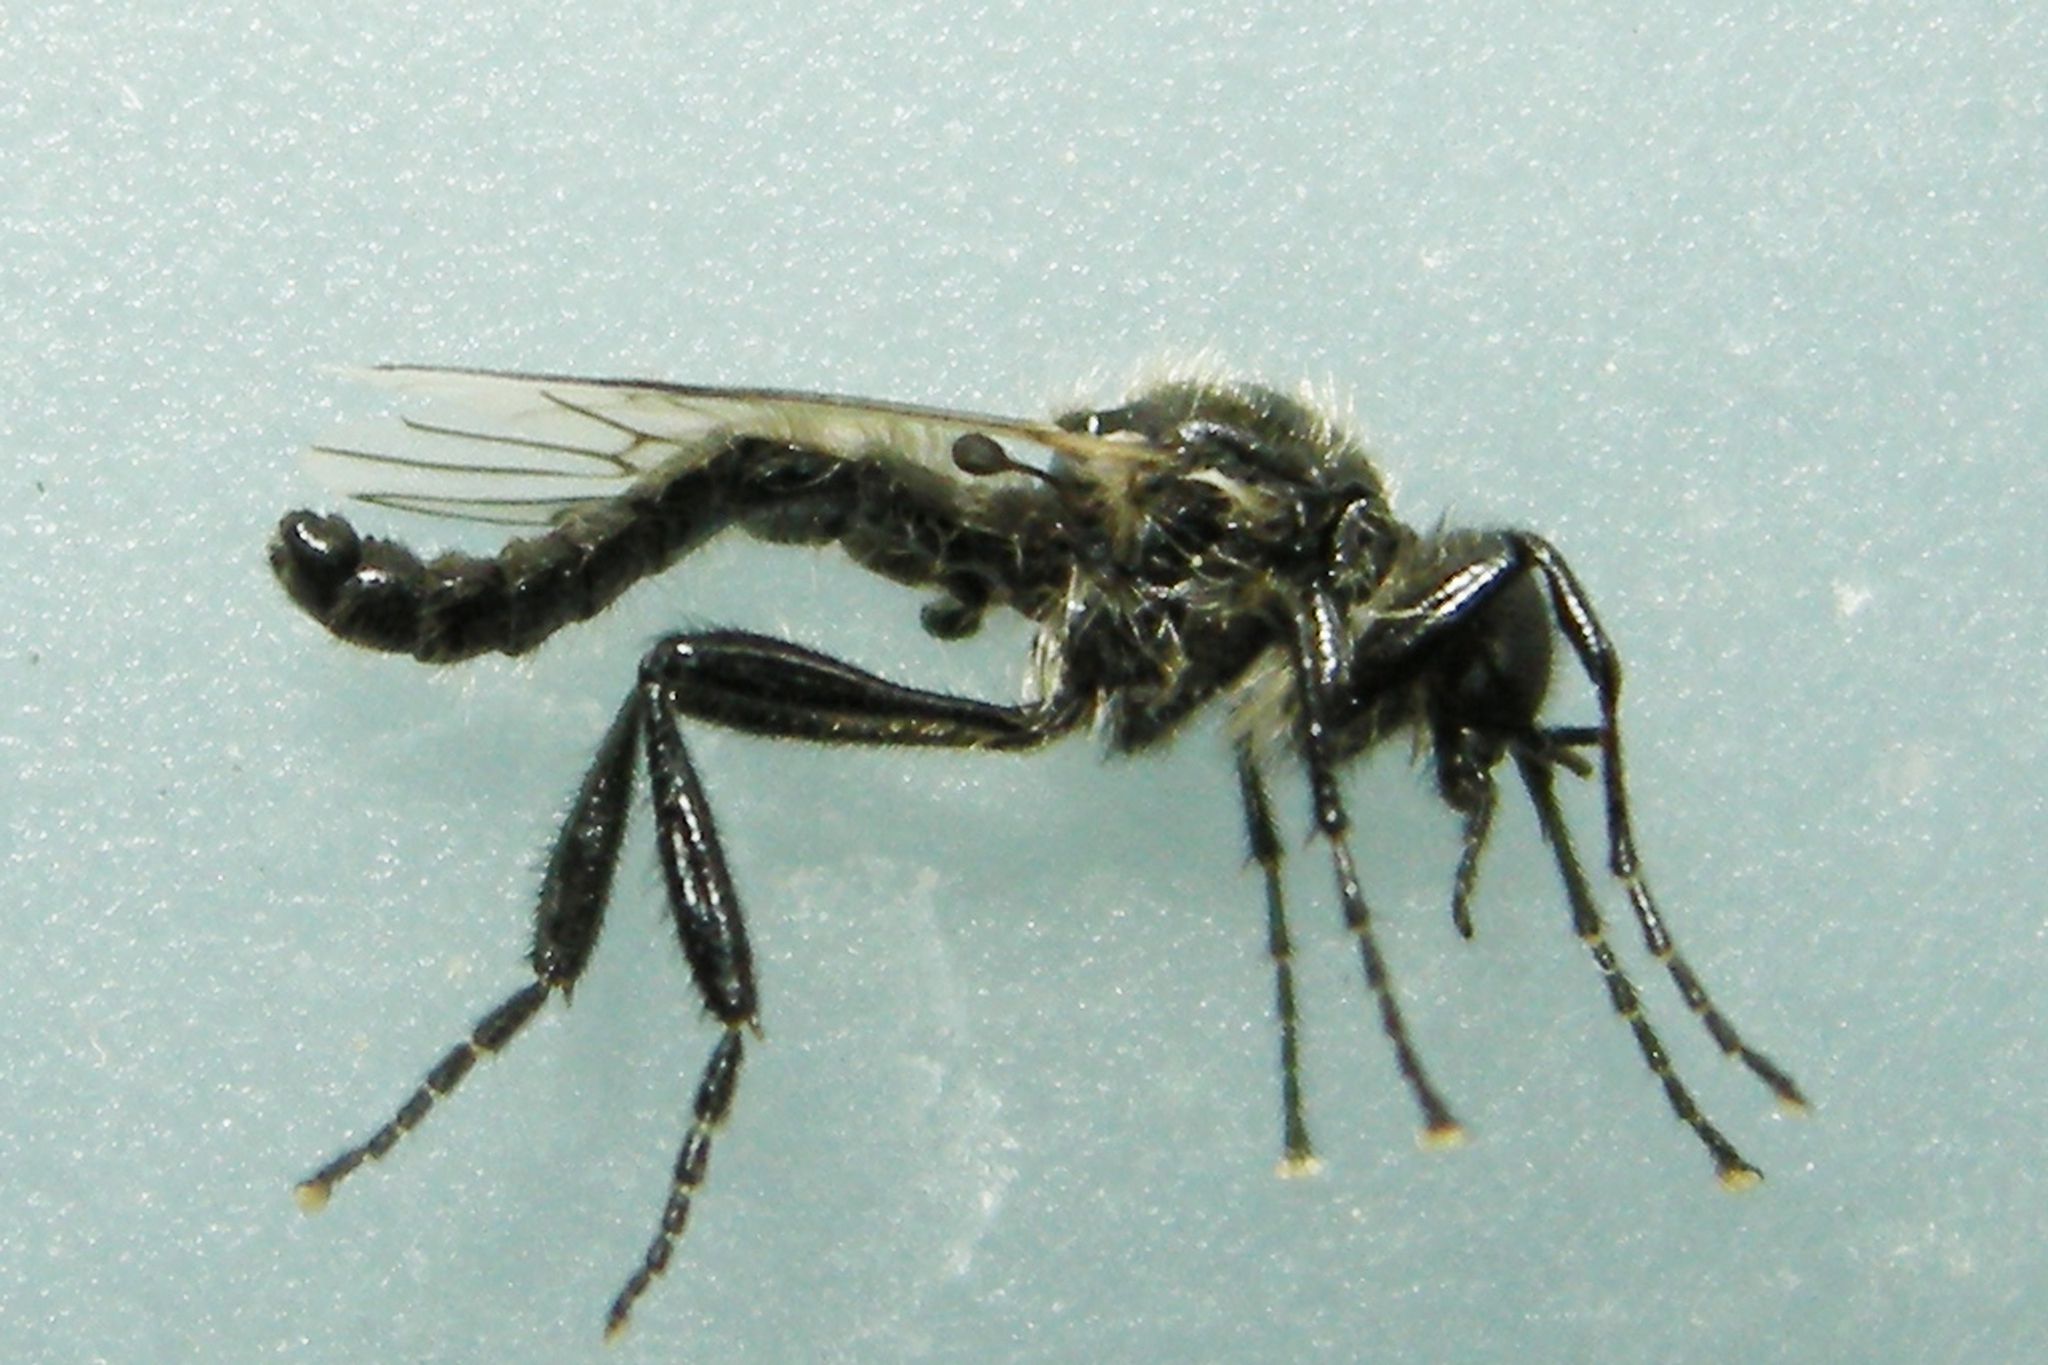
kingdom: Animalia
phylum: Arthropoda
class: Insecta
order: Diptera
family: Bibionidae
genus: Bibio
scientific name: Bibio albipennis
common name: White-winged march fly
